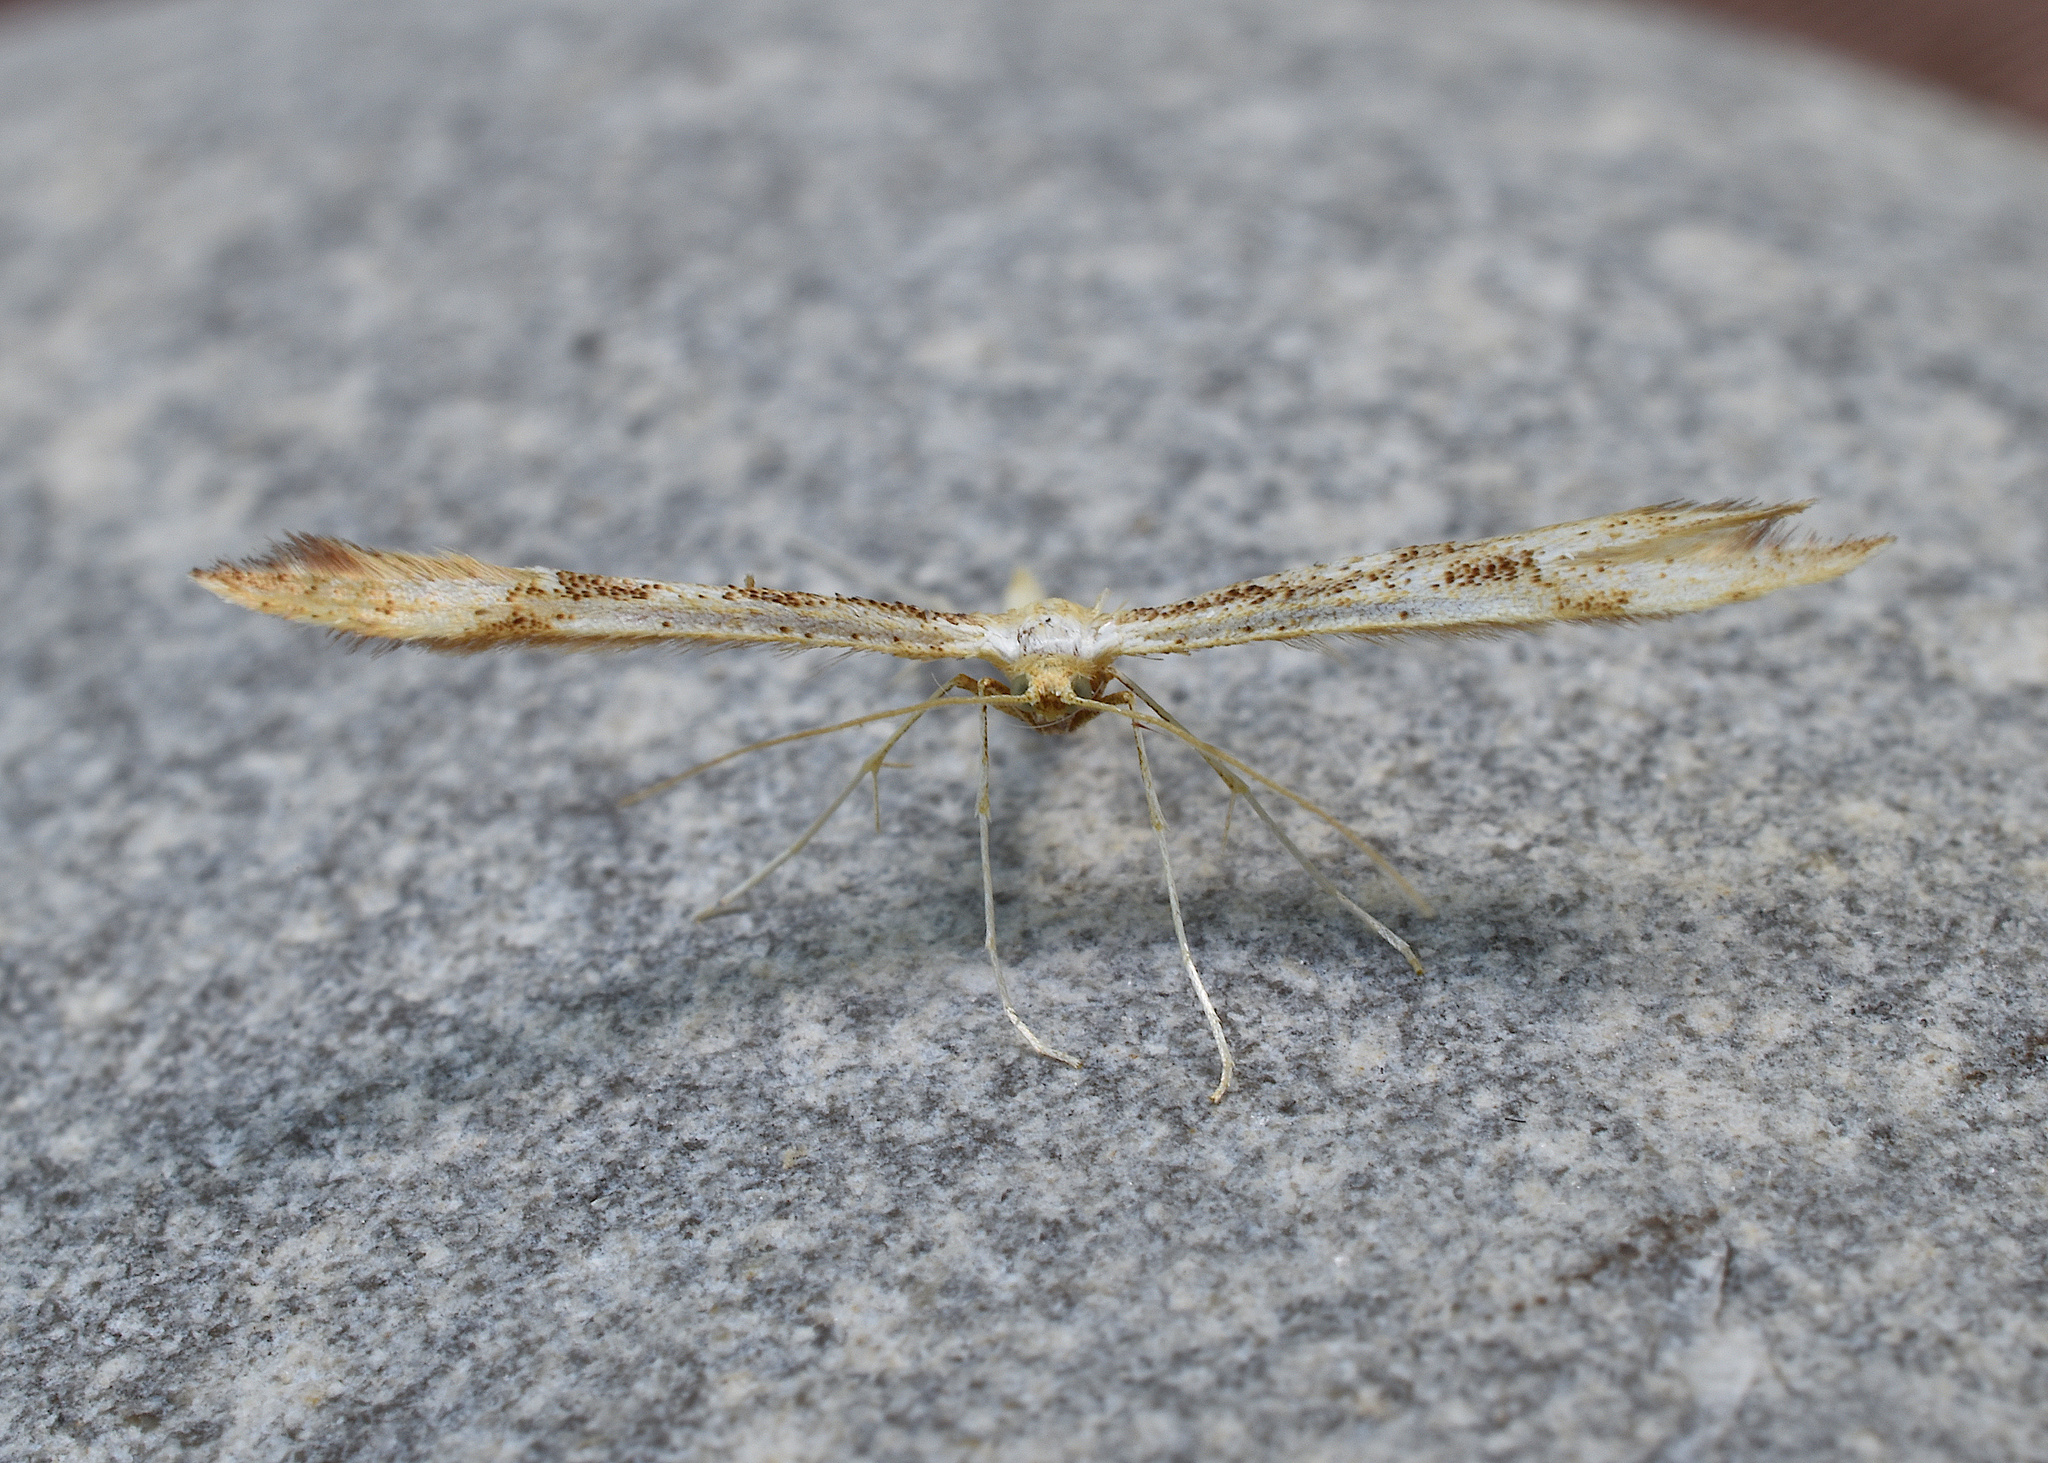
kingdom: Animalia
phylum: Arthropoda
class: Insecta
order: Lepidoptera
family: Pterophoridae
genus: Adaina
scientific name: Adaina montanus
